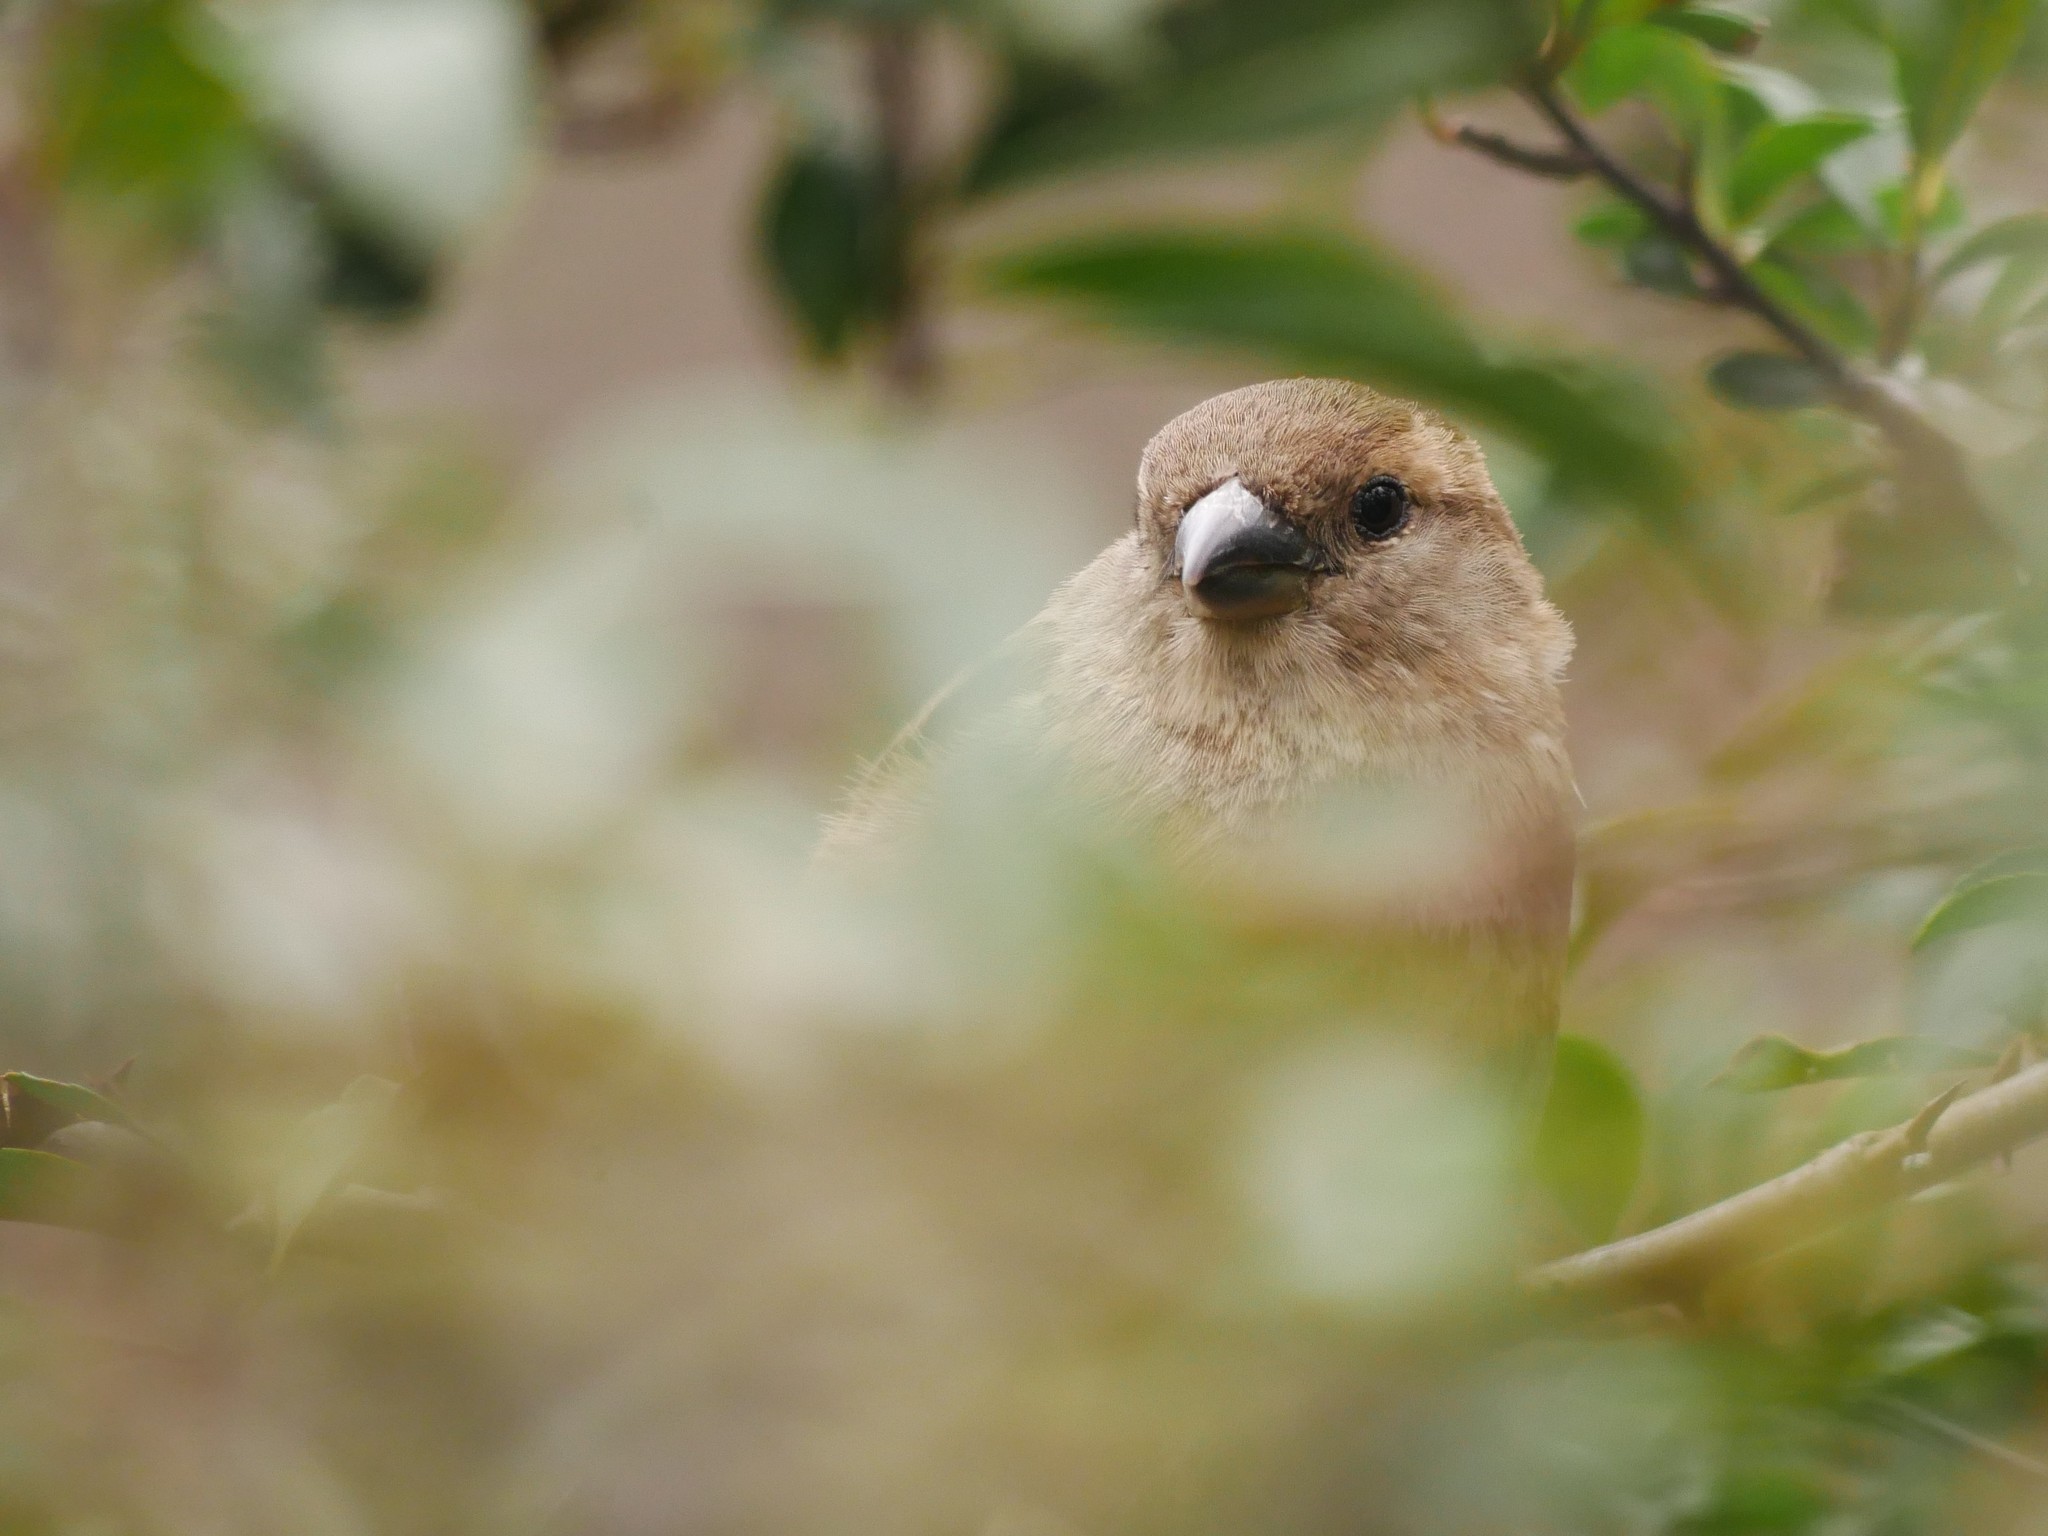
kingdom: Animalia
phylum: Chordata
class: Aves
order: Passeriformes
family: Passeridae
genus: Passer
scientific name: Passer domesticus
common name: House sparrow
